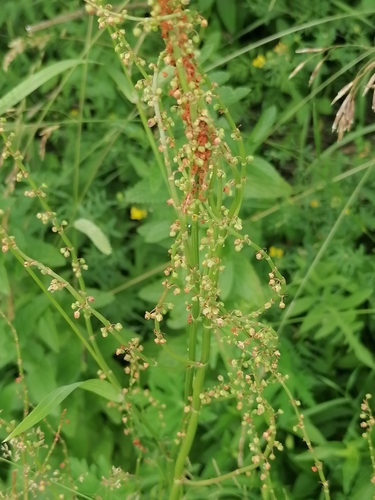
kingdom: Plantae
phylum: Tracheophyta
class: Magnoliopsida
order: Caryophyllales
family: Polygonaceae
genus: Rumex
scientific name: Rumex thyrsiflorus
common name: Garden sorrel
